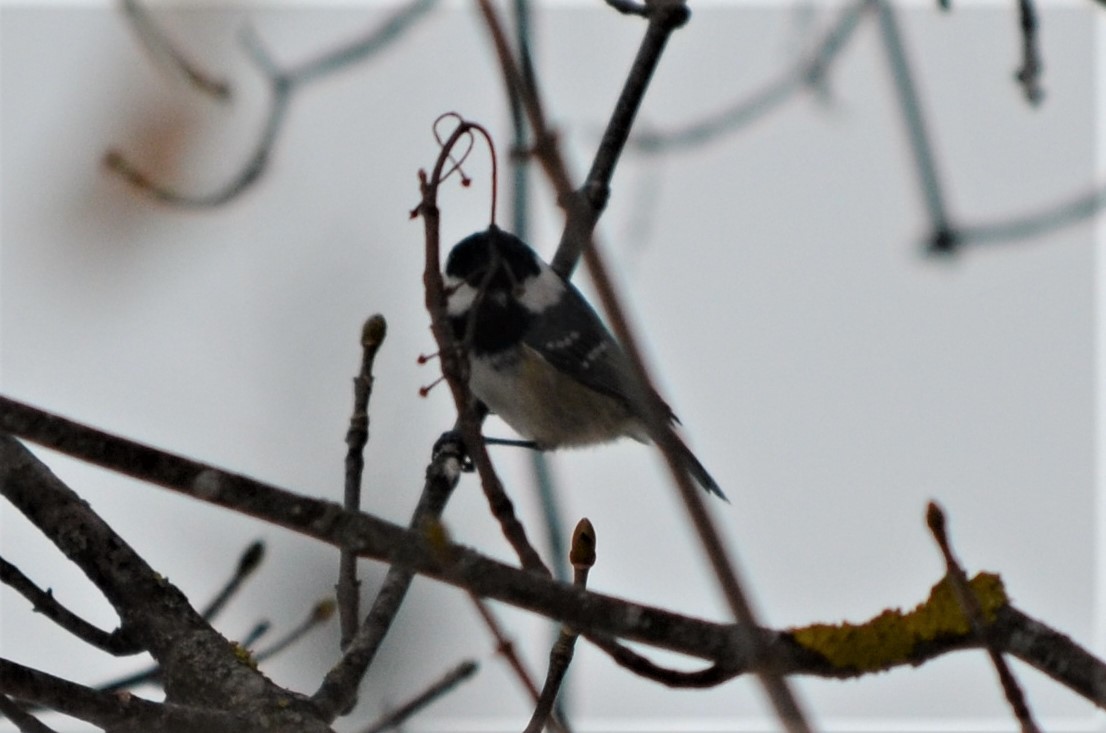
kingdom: Animalia
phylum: Chordata
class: Aves
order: Passeriformes
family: Paridae
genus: Periparus
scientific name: Periparus ater
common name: Coal tit
